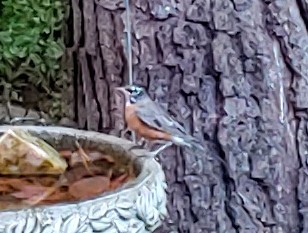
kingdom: Animalia
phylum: Chordata
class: Aves
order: Passeriformes
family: Turdidae
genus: Turdus
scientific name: Turdus migratorius
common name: American robin
